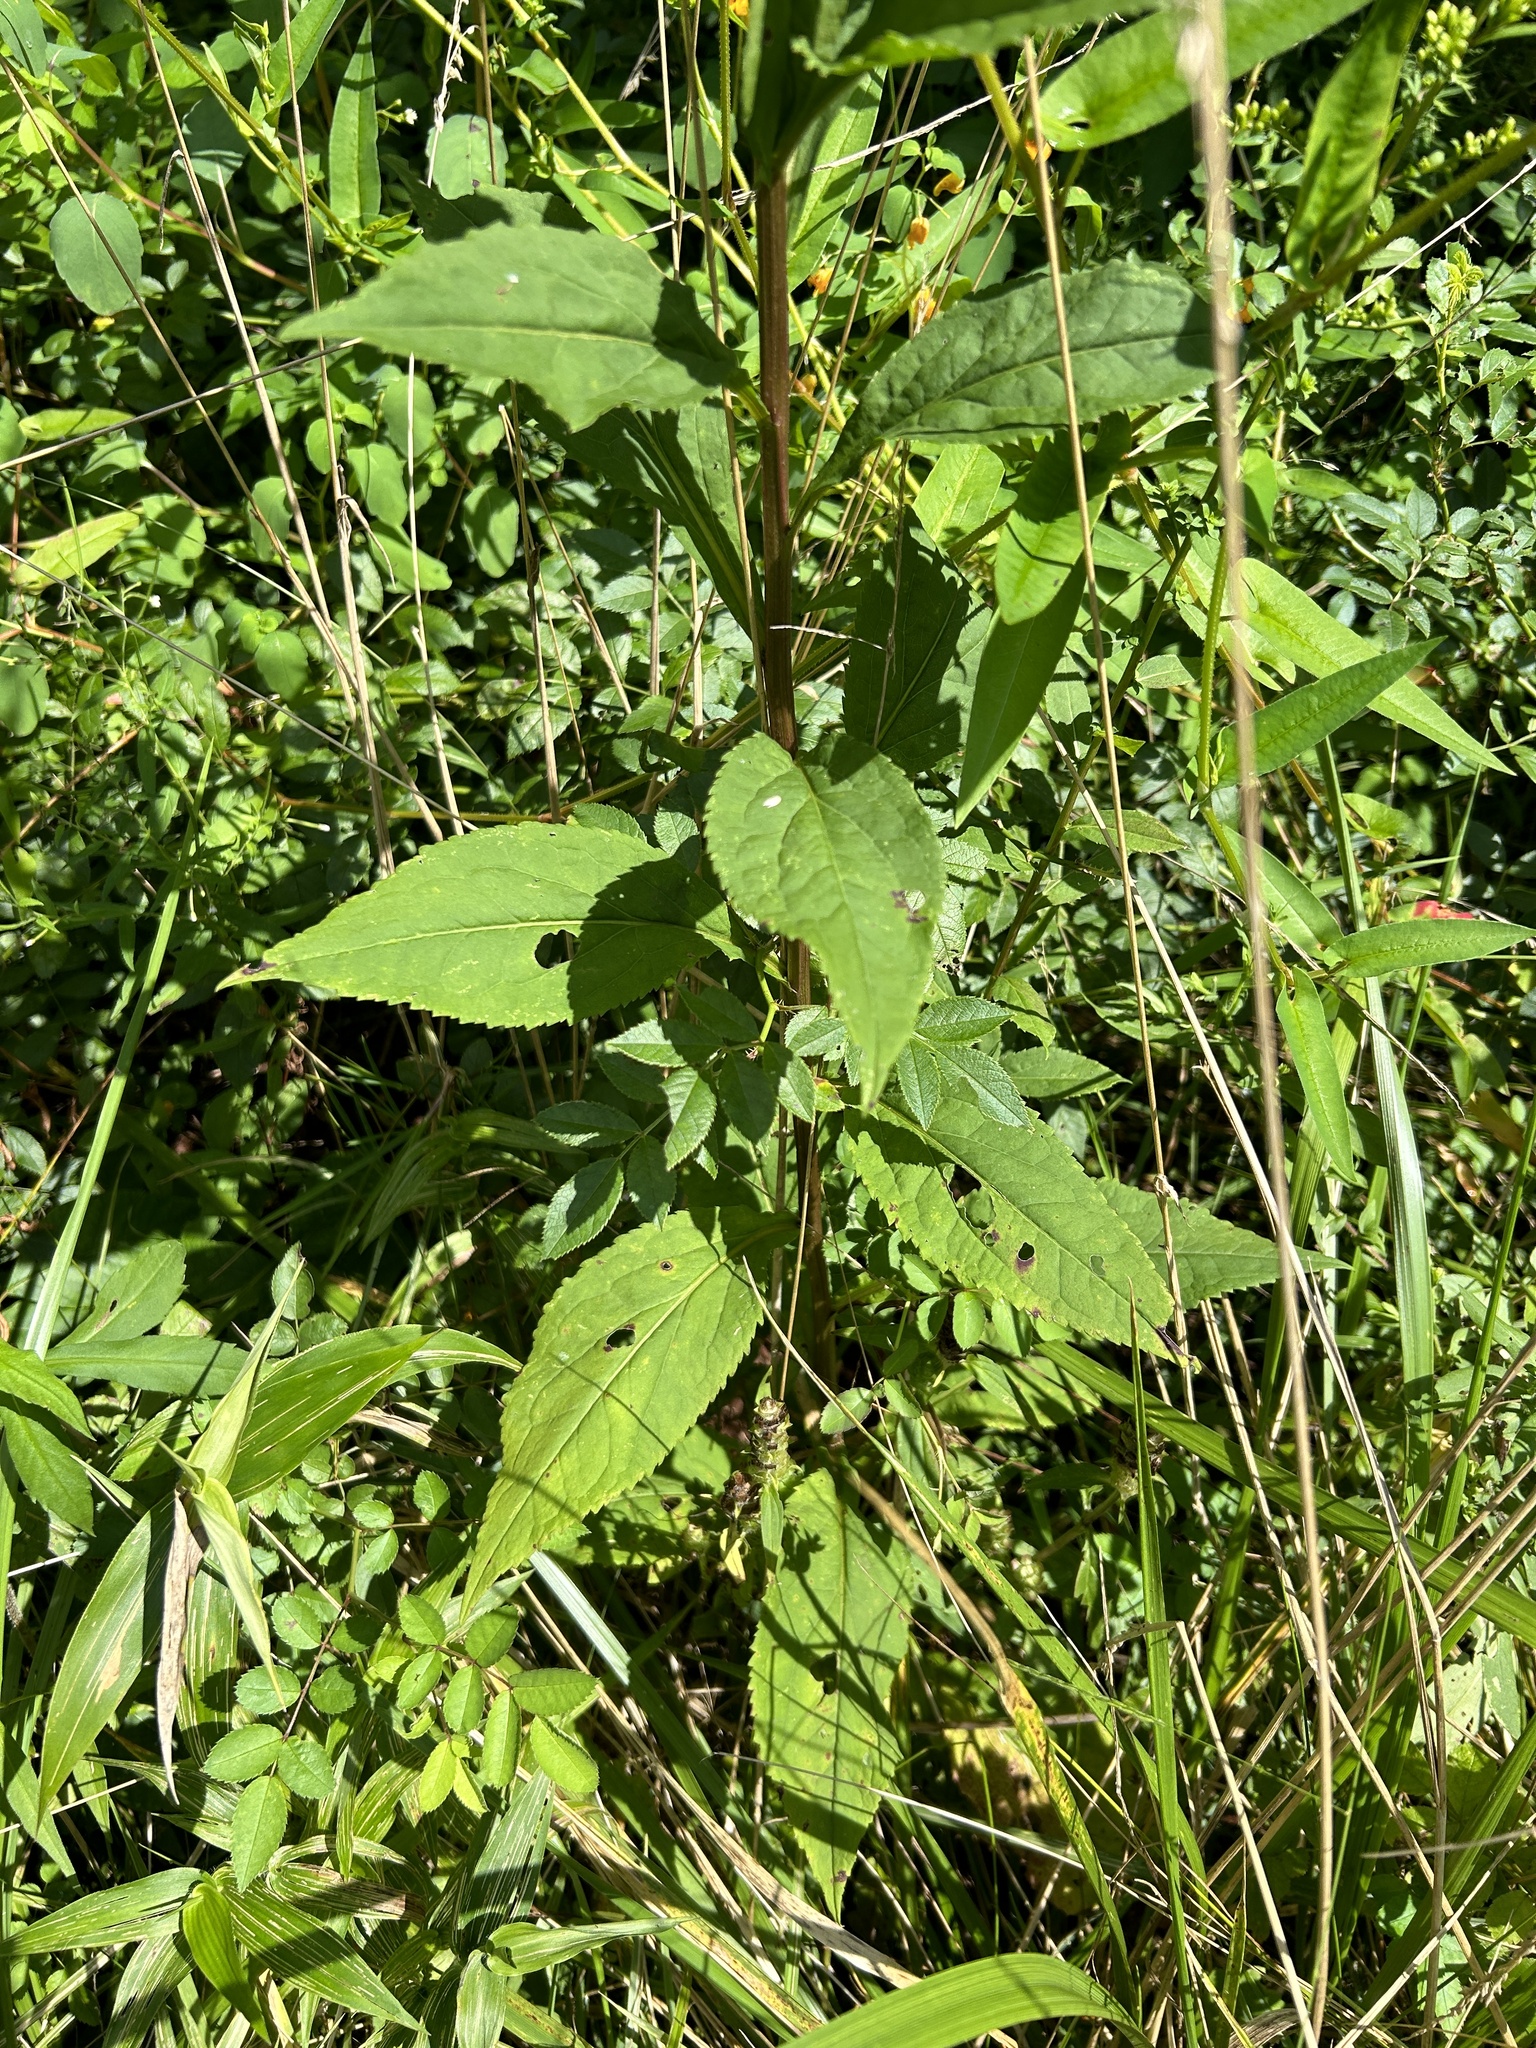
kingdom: Plantae
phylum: Tracheophyta
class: Magnoliopsida
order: Asterales
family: Asteraceae
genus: Solidago
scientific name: Solidago patula
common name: Rough-leaf goldenrod
